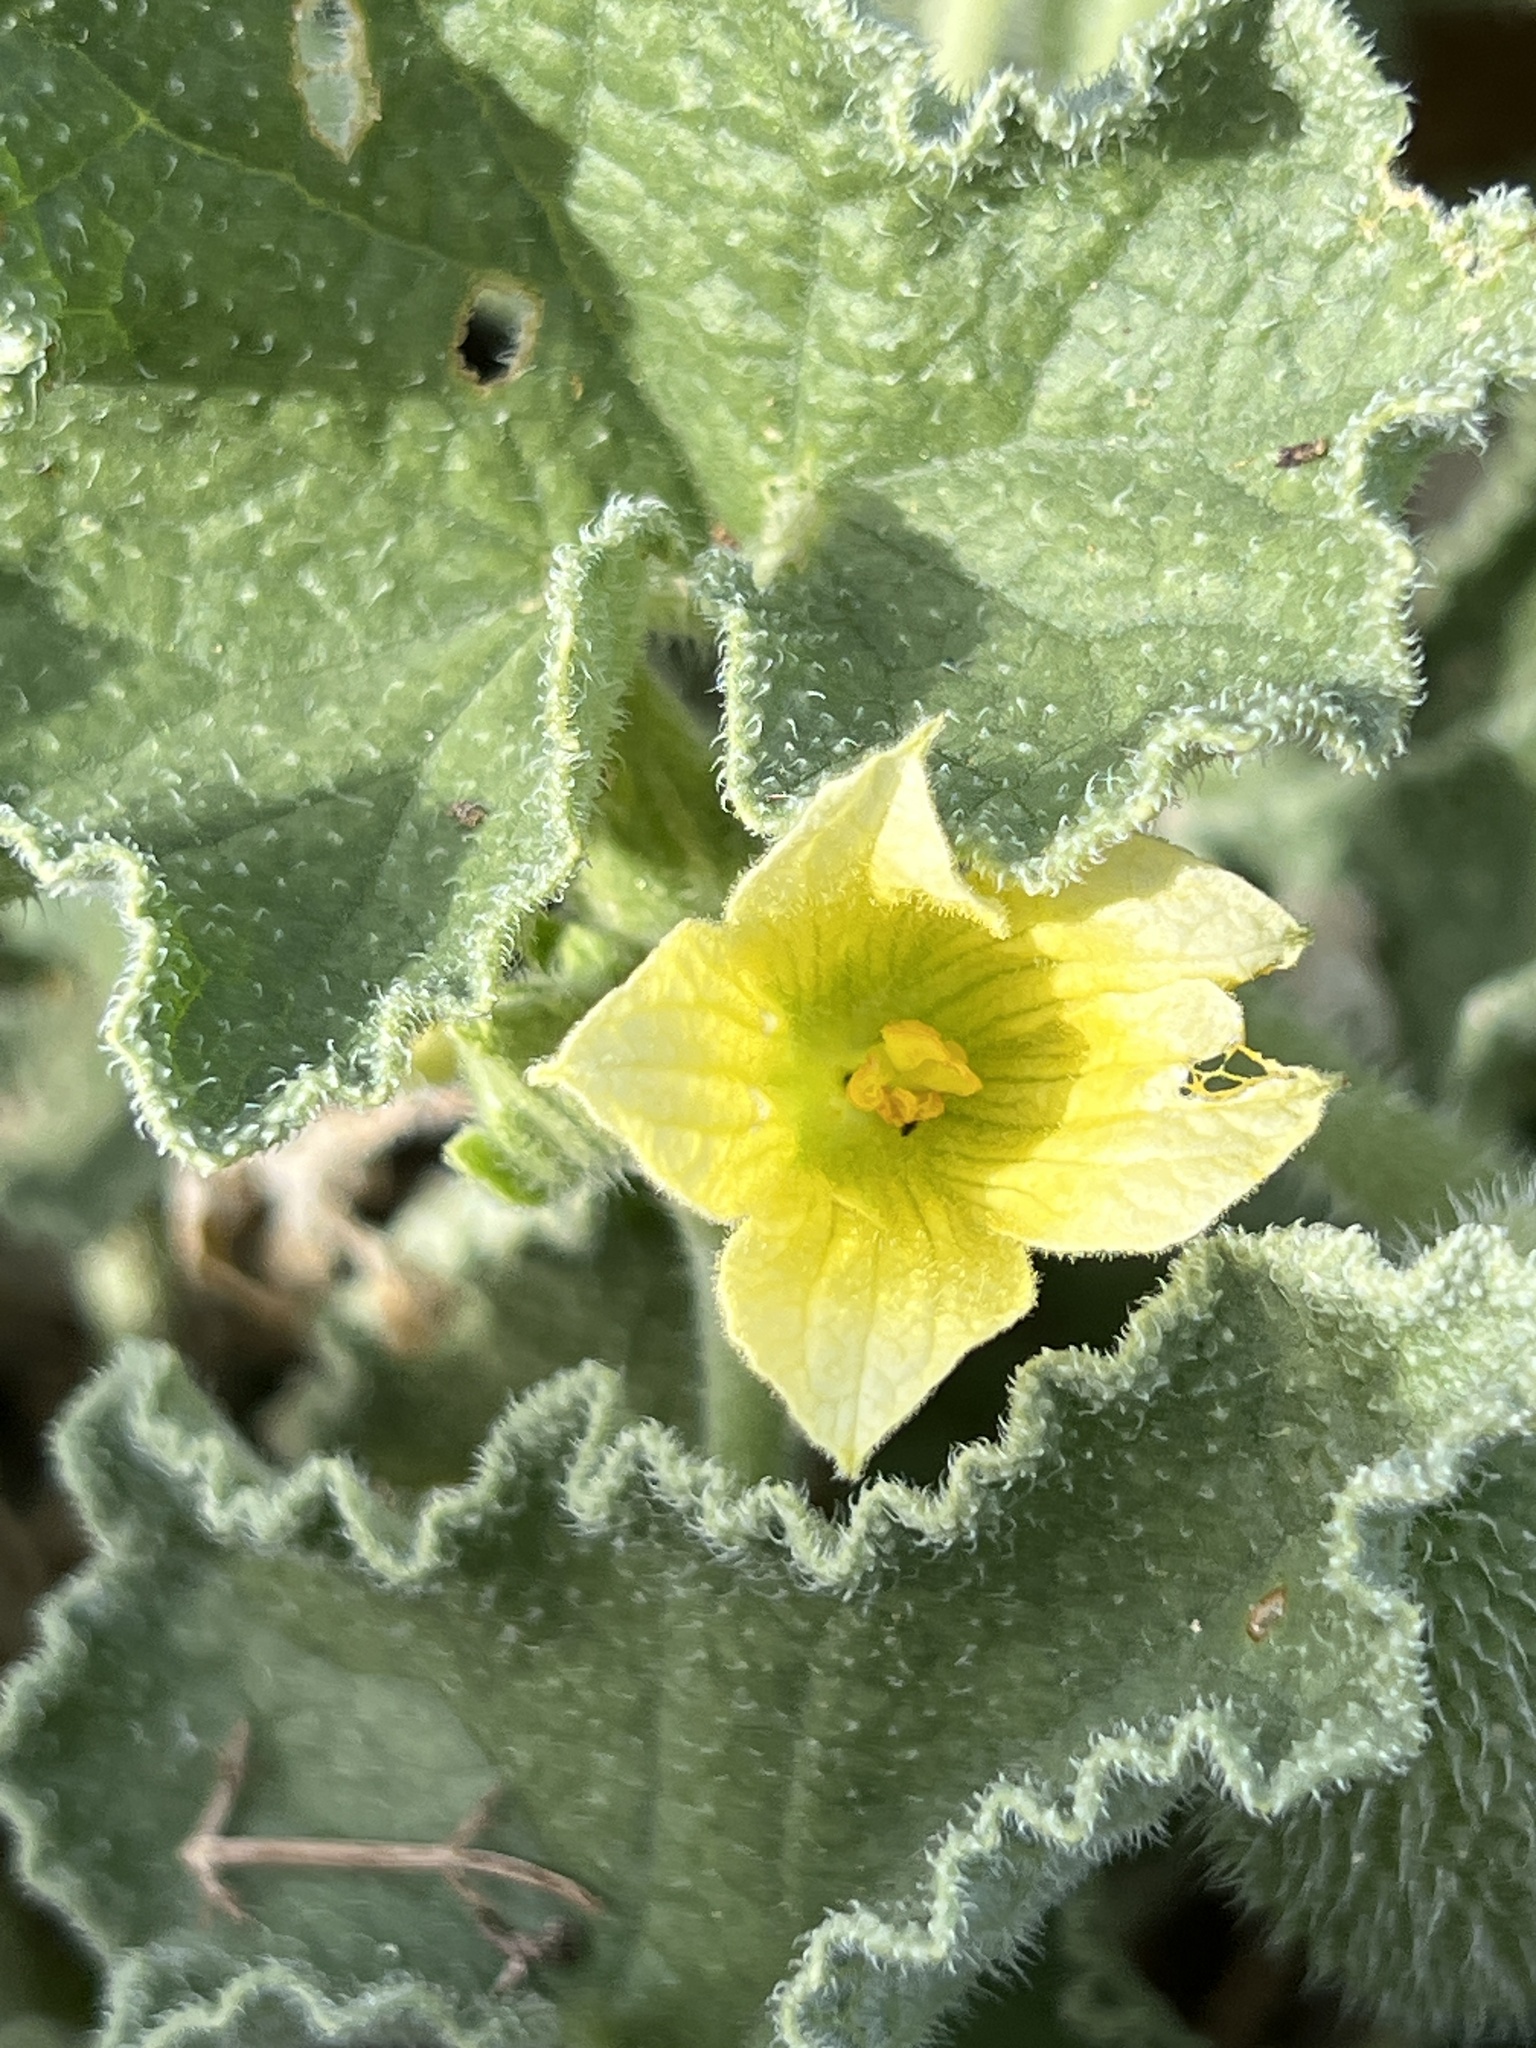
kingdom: Plantae
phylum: Tracheophyta
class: Magnoliopsida
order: Cucurbitales
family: Cucurbitaceae
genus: Ecballium
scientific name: Ecballium elaterium
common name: Squirting cucumber
